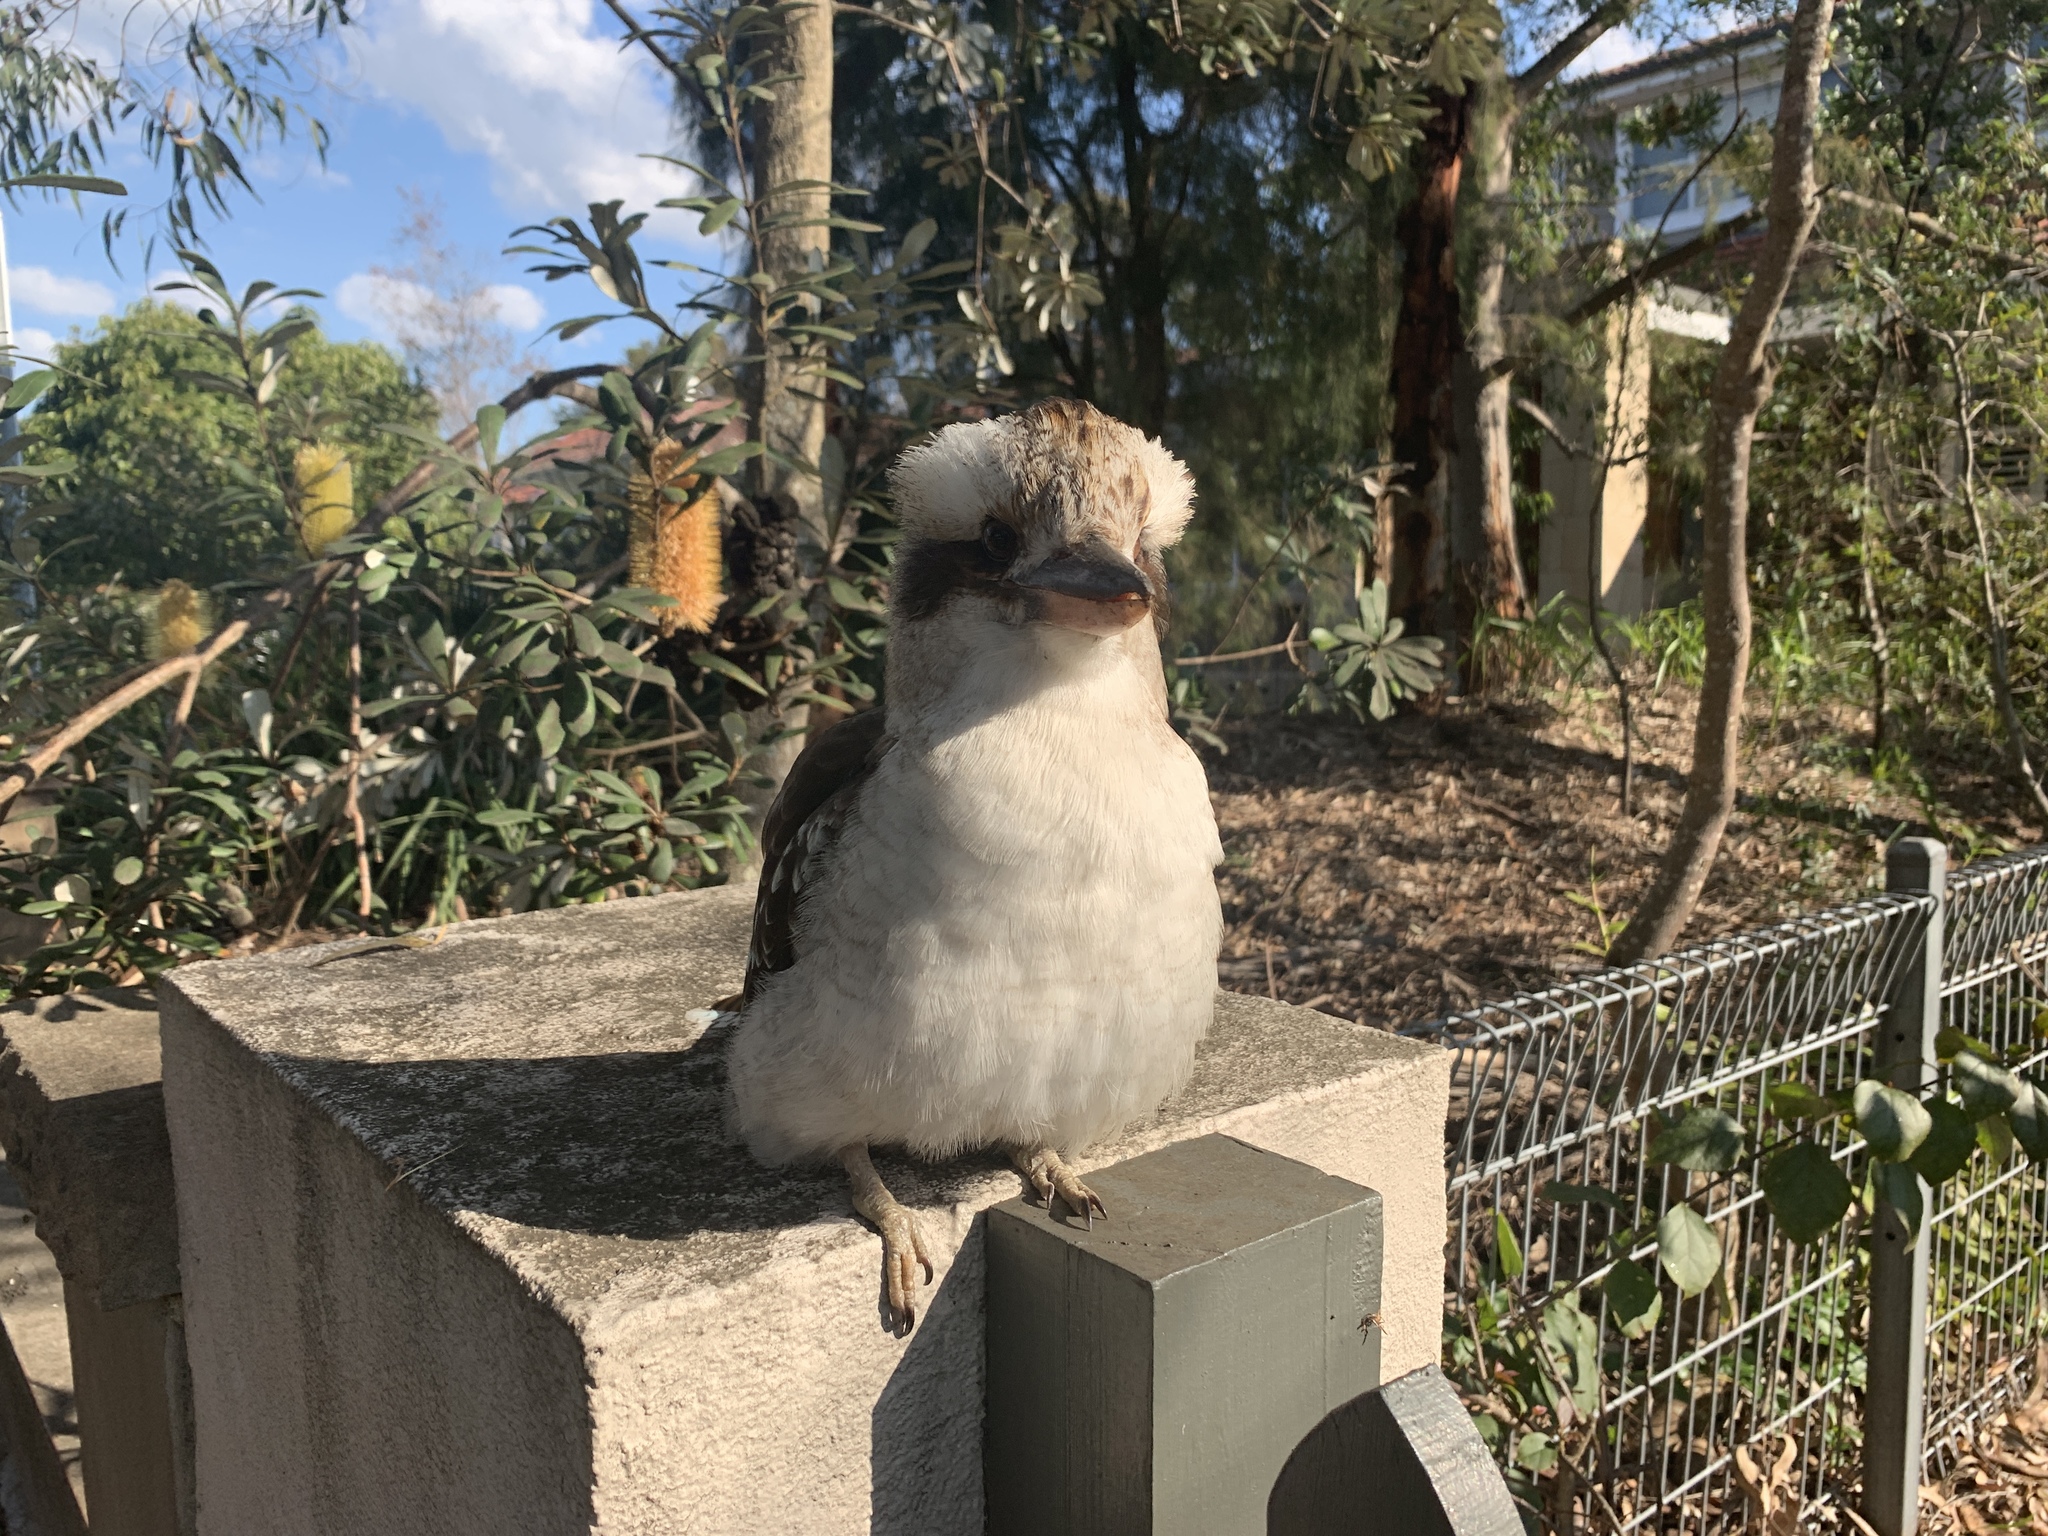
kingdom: Animalia
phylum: Chordata
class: Aves
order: Coraciiformes
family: Alcedinidae
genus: Dacelo
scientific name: Dacelo novaeguineae
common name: Laughing kookaburra
